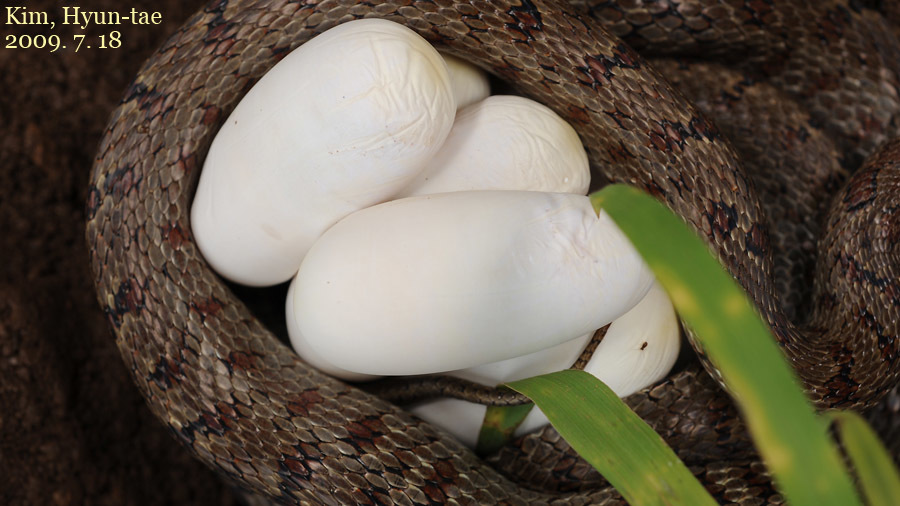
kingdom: Animalia
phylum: Chordata
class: Squamata
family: Colubridae
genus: Elaphe
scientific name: Elaphe dione
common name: Dione ratsnake
